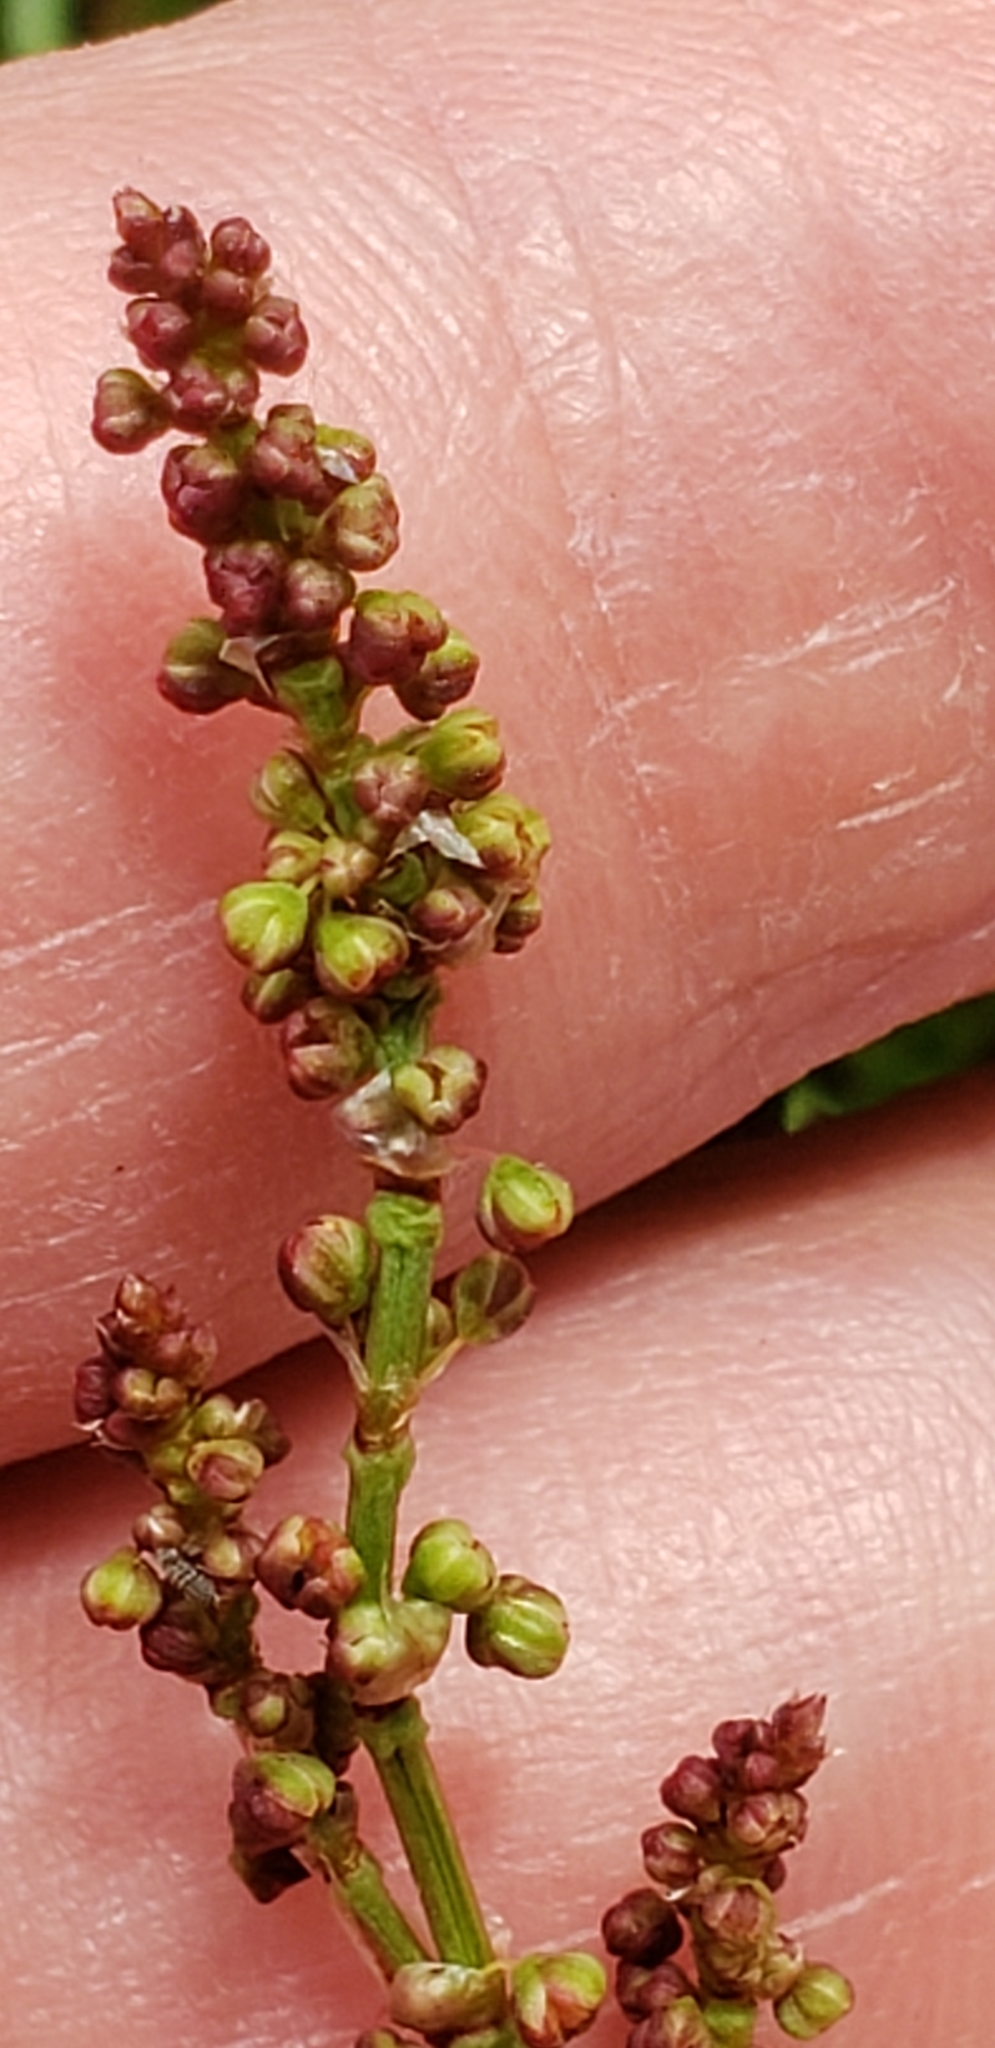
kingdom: Plantae
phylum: Tracheophyta
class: Magnoliopsida
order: Caryophyllales
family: Polygonaceae
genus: Rumex
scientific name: Rumex acetosella
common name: Common sheep sorrel
